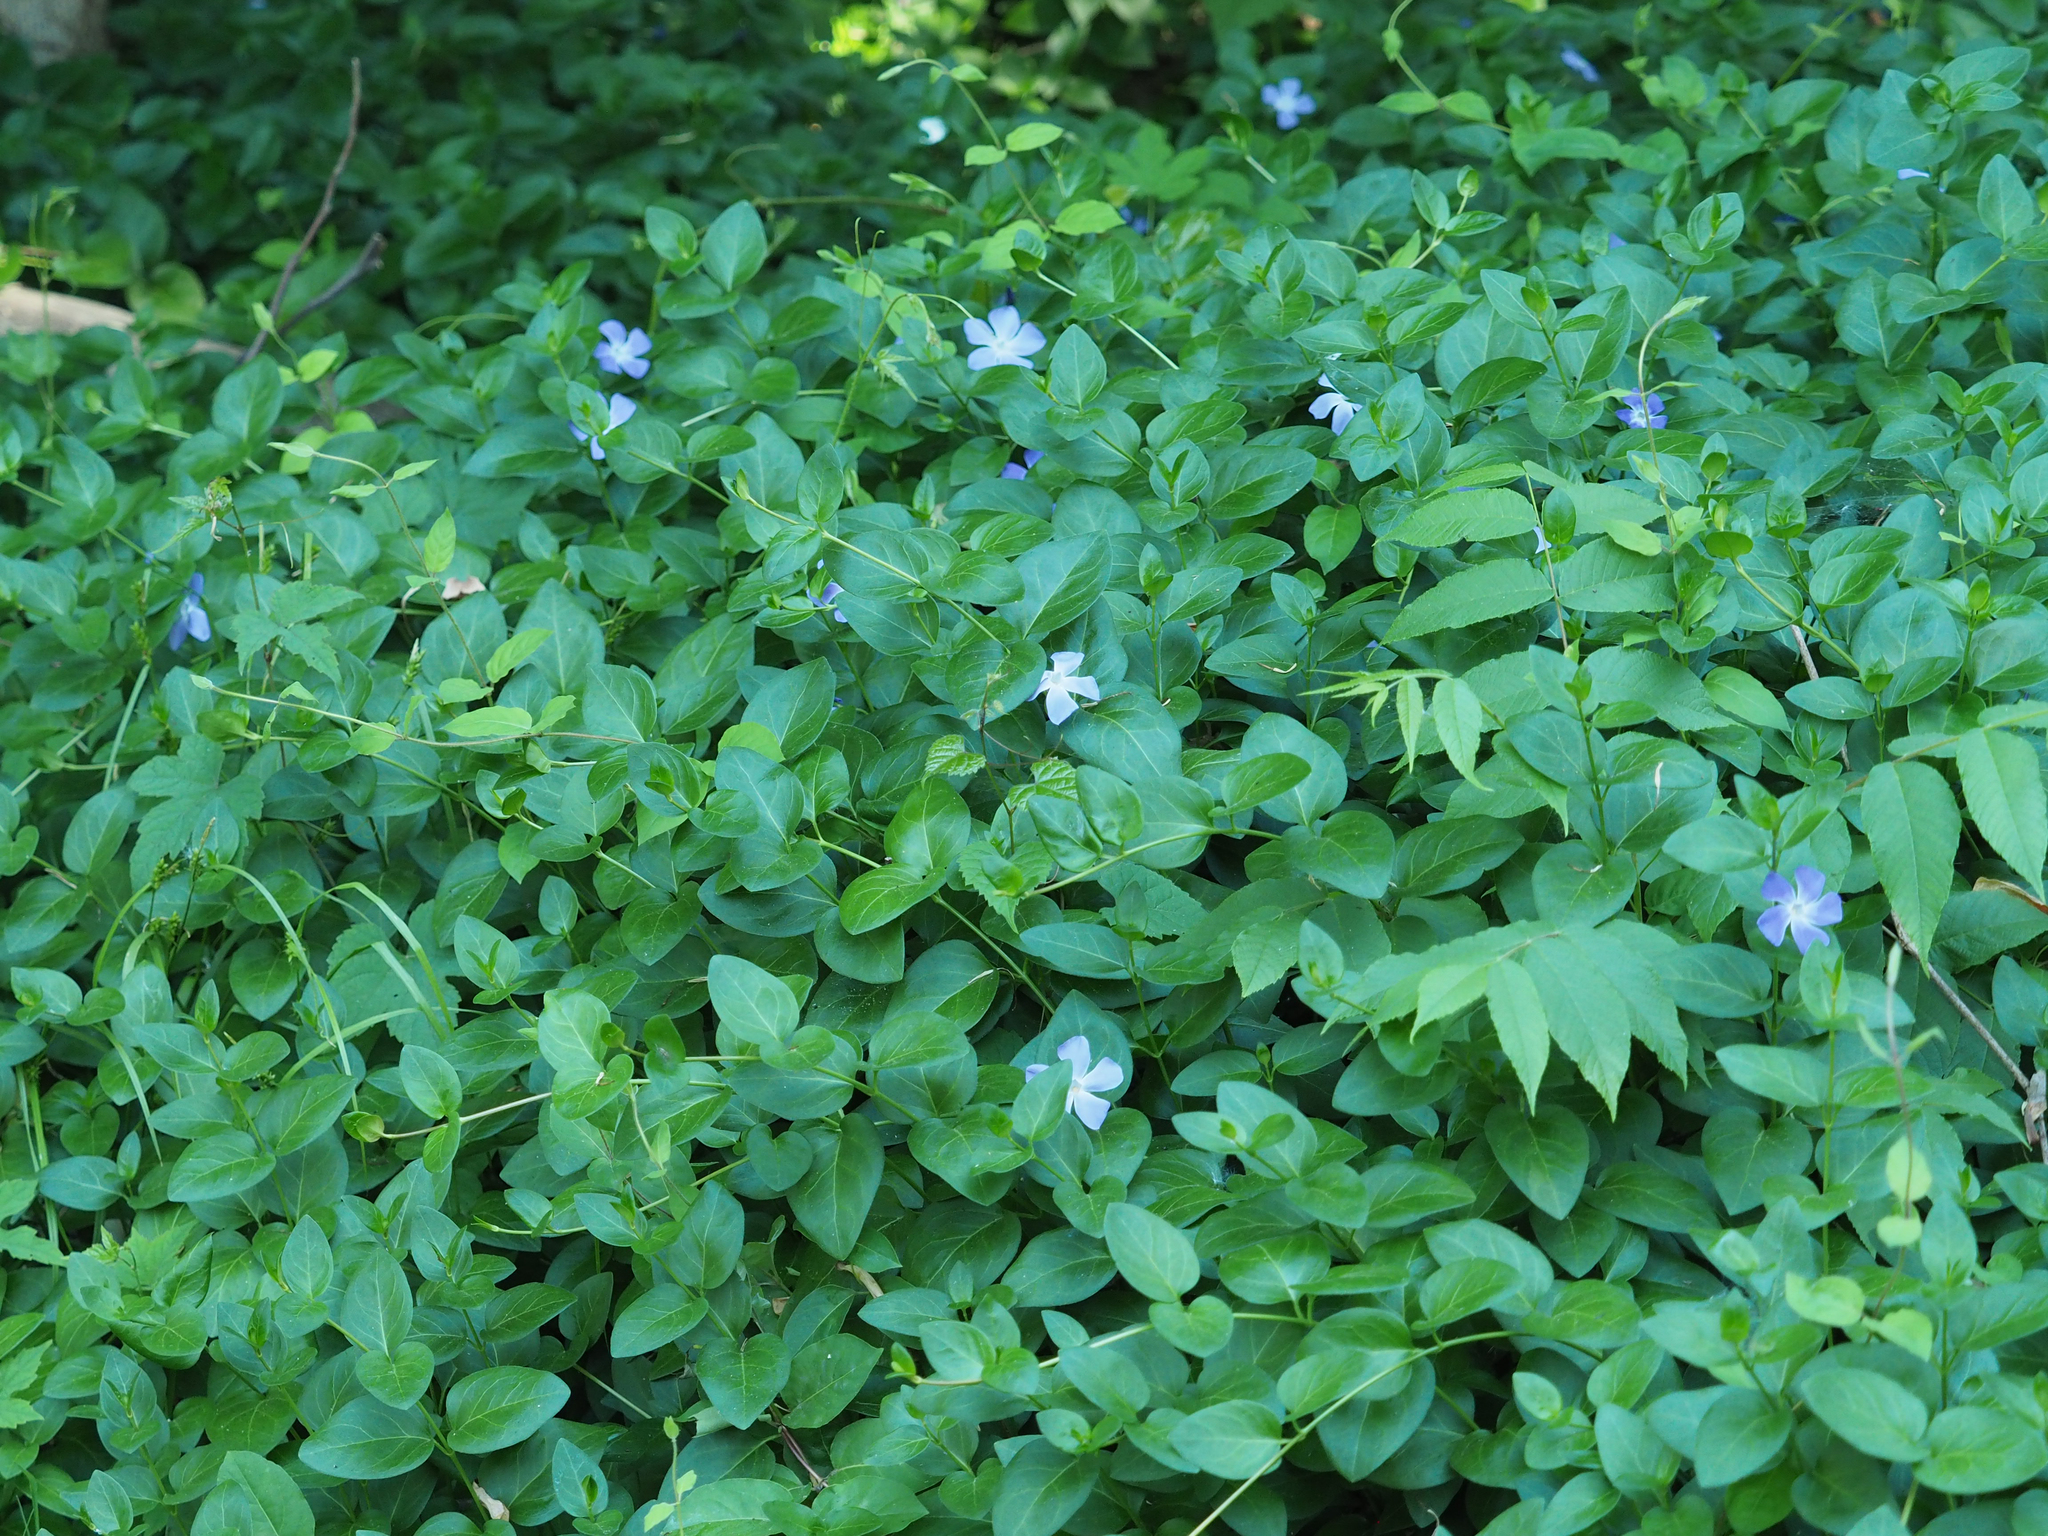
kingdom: Plantae
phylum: Tracheophyta
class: Magnoliopsida
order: Gentianales
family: Apocynaceae
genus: Vinca
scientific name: Vinca major
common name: Greater periwinkle
